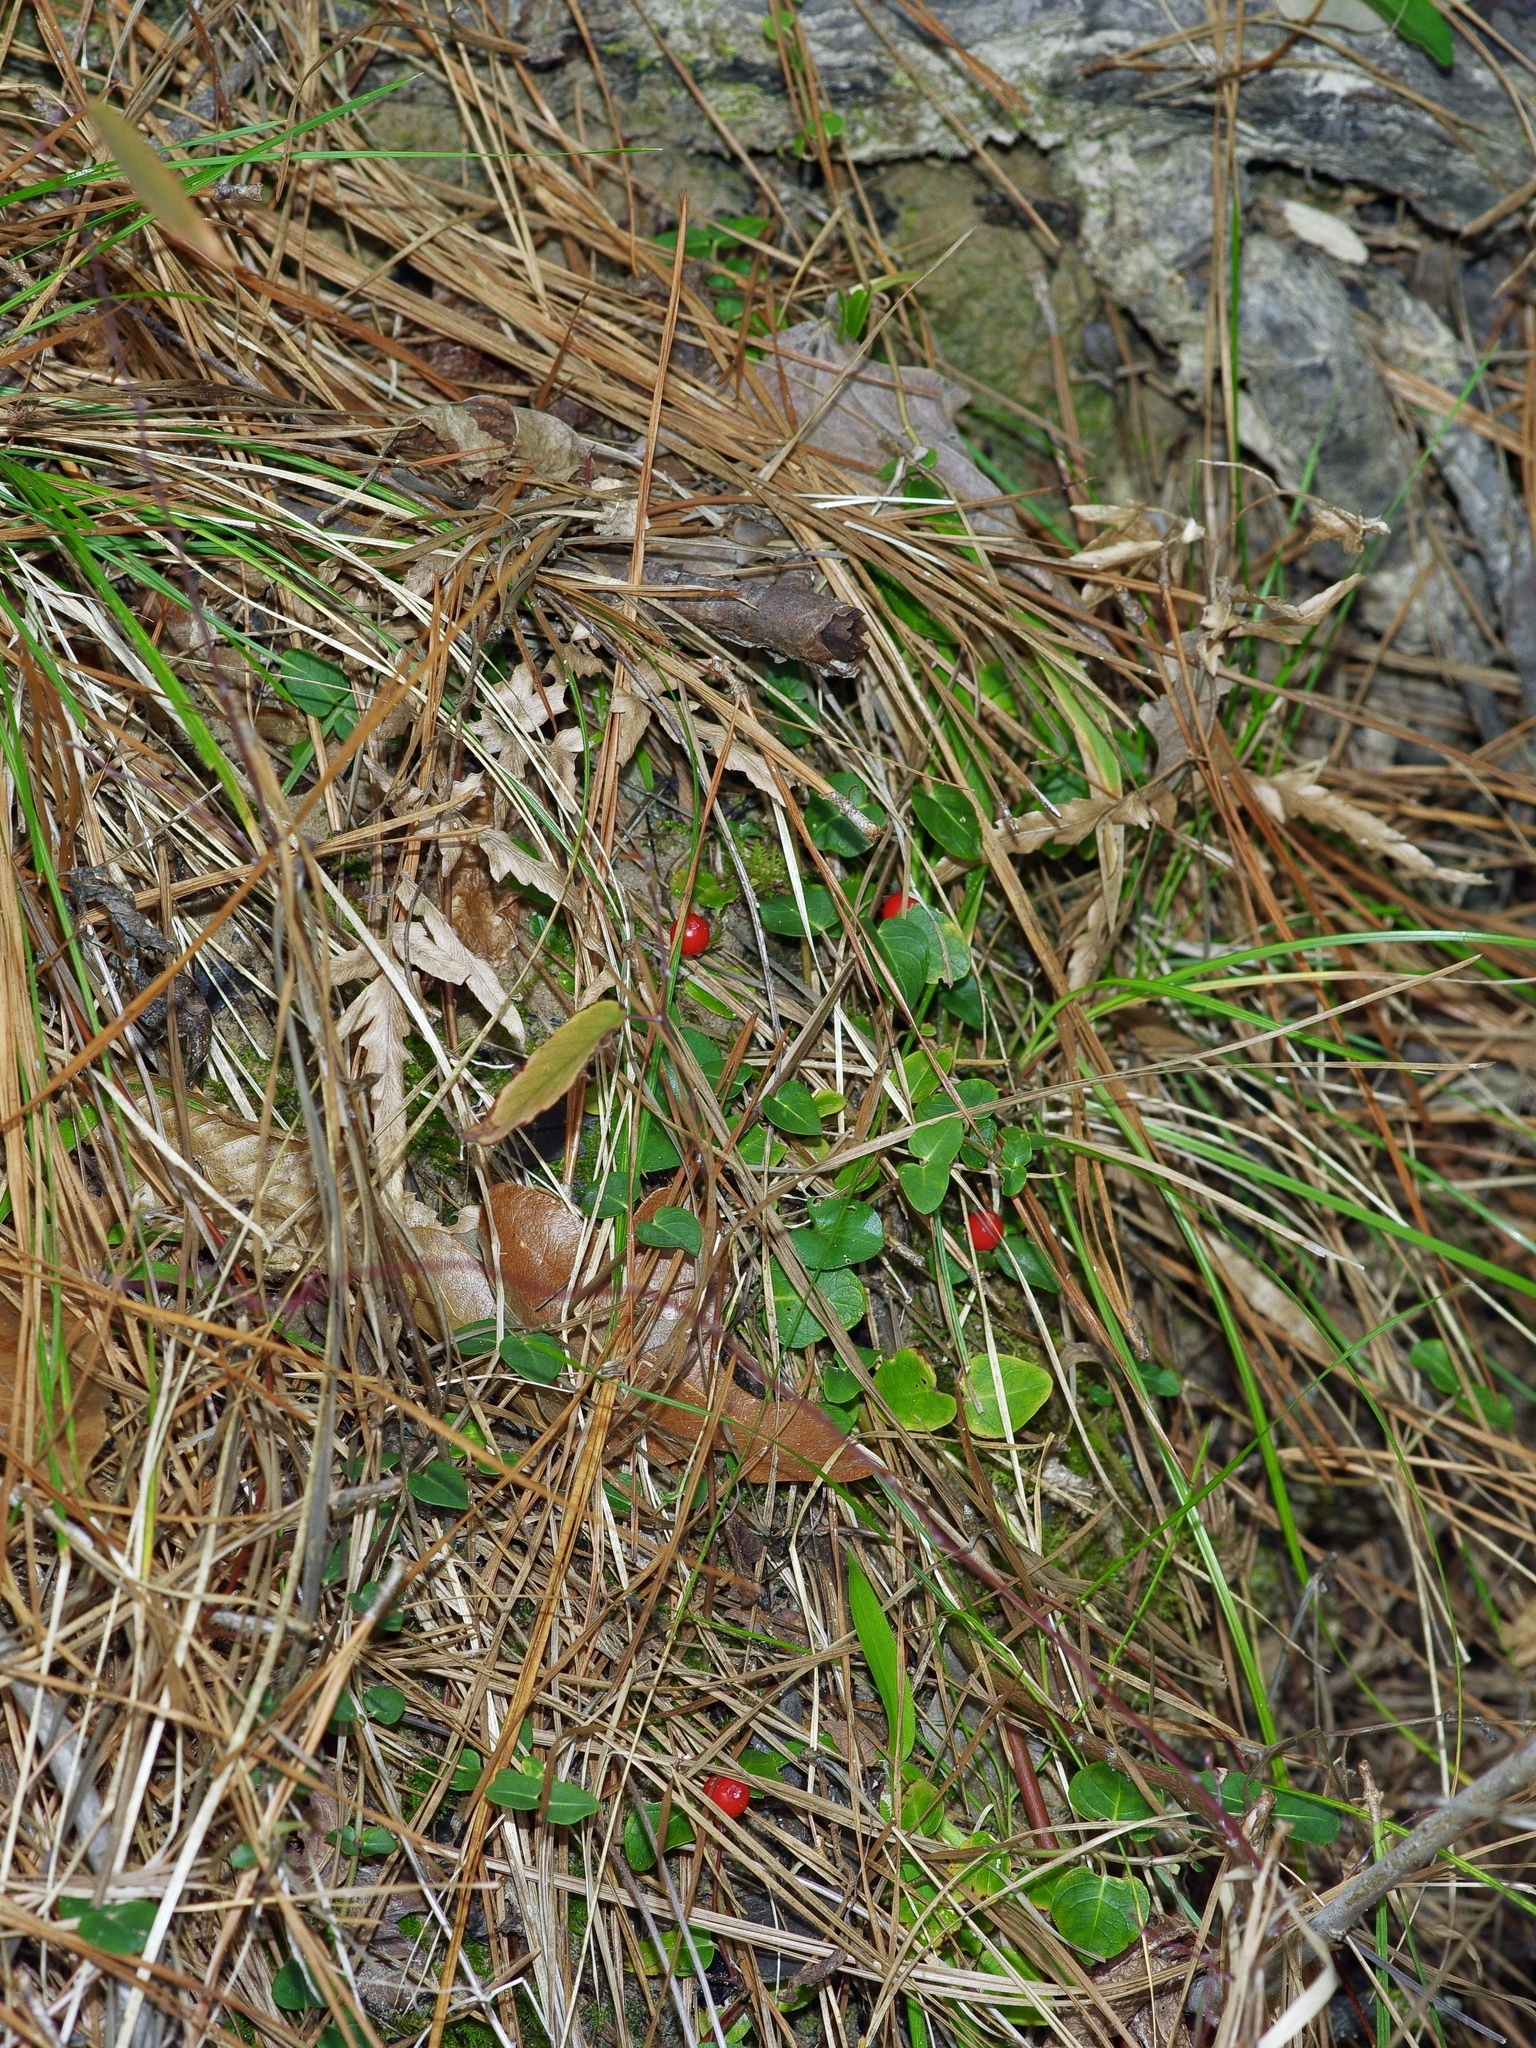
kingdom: Plantae
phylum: Tracheophyta
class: Magnoliopsida
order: Gentianales
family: Rubiaceae
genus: Mitchella
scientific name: Mitchella repens
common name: Partridge-berry
